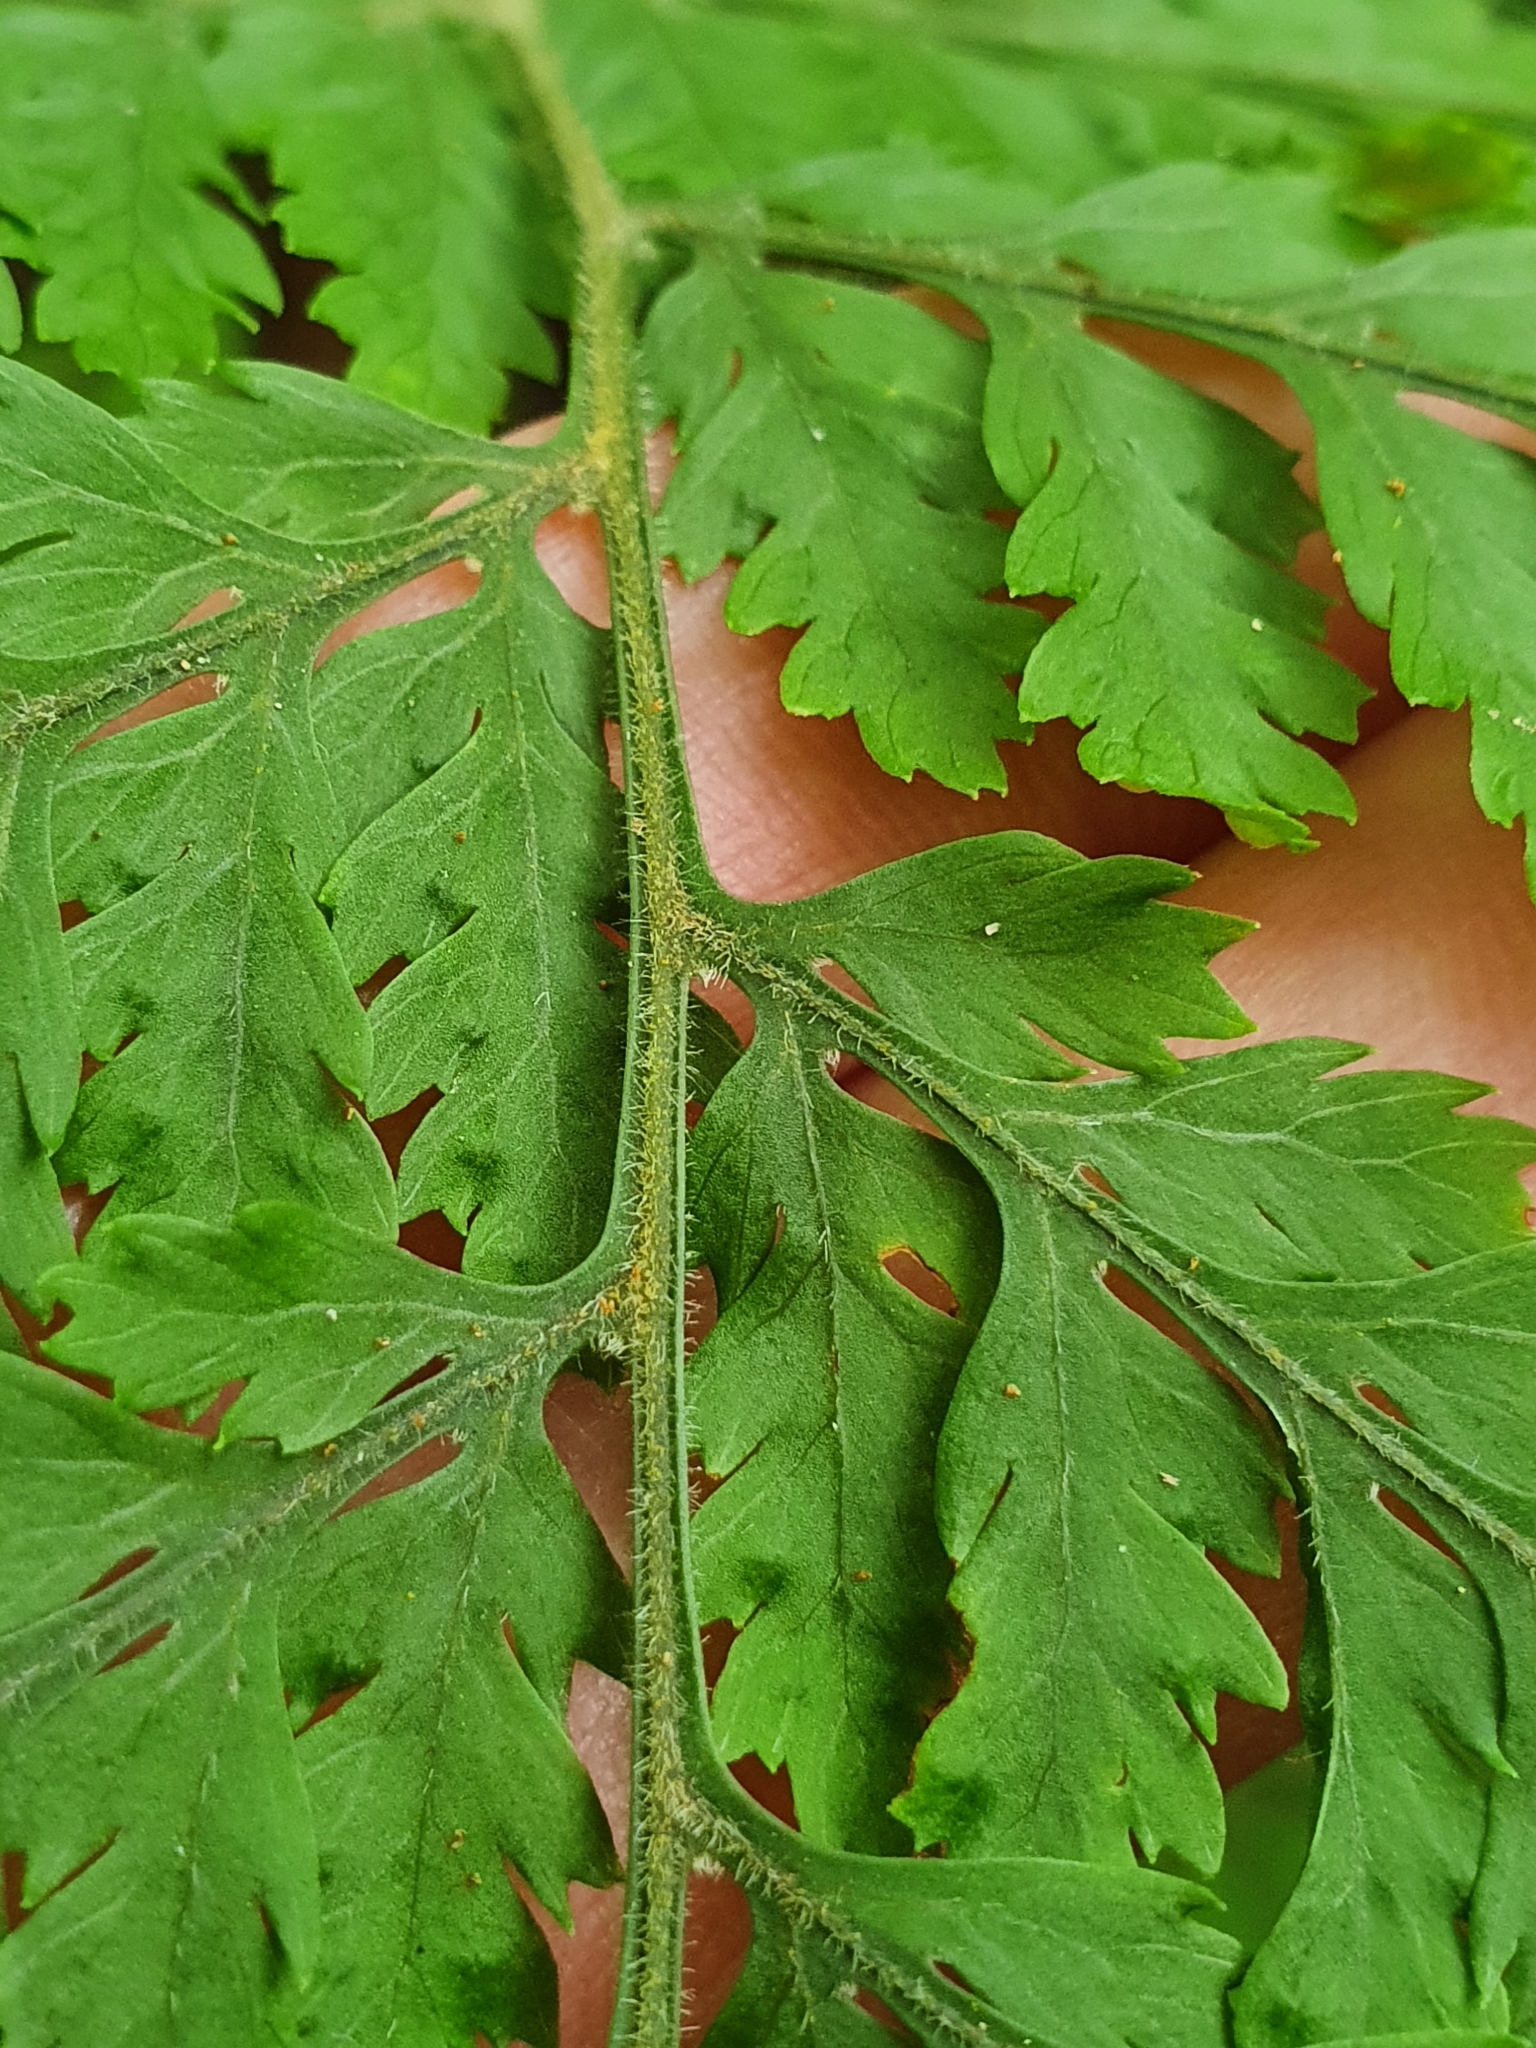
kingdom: Plantae
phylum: Tracheophyta
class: Polypodiopsida
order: Polypodiales
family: Dryopteridaceae
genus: Parapolystichum
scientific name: Parapolystichum microsorum
